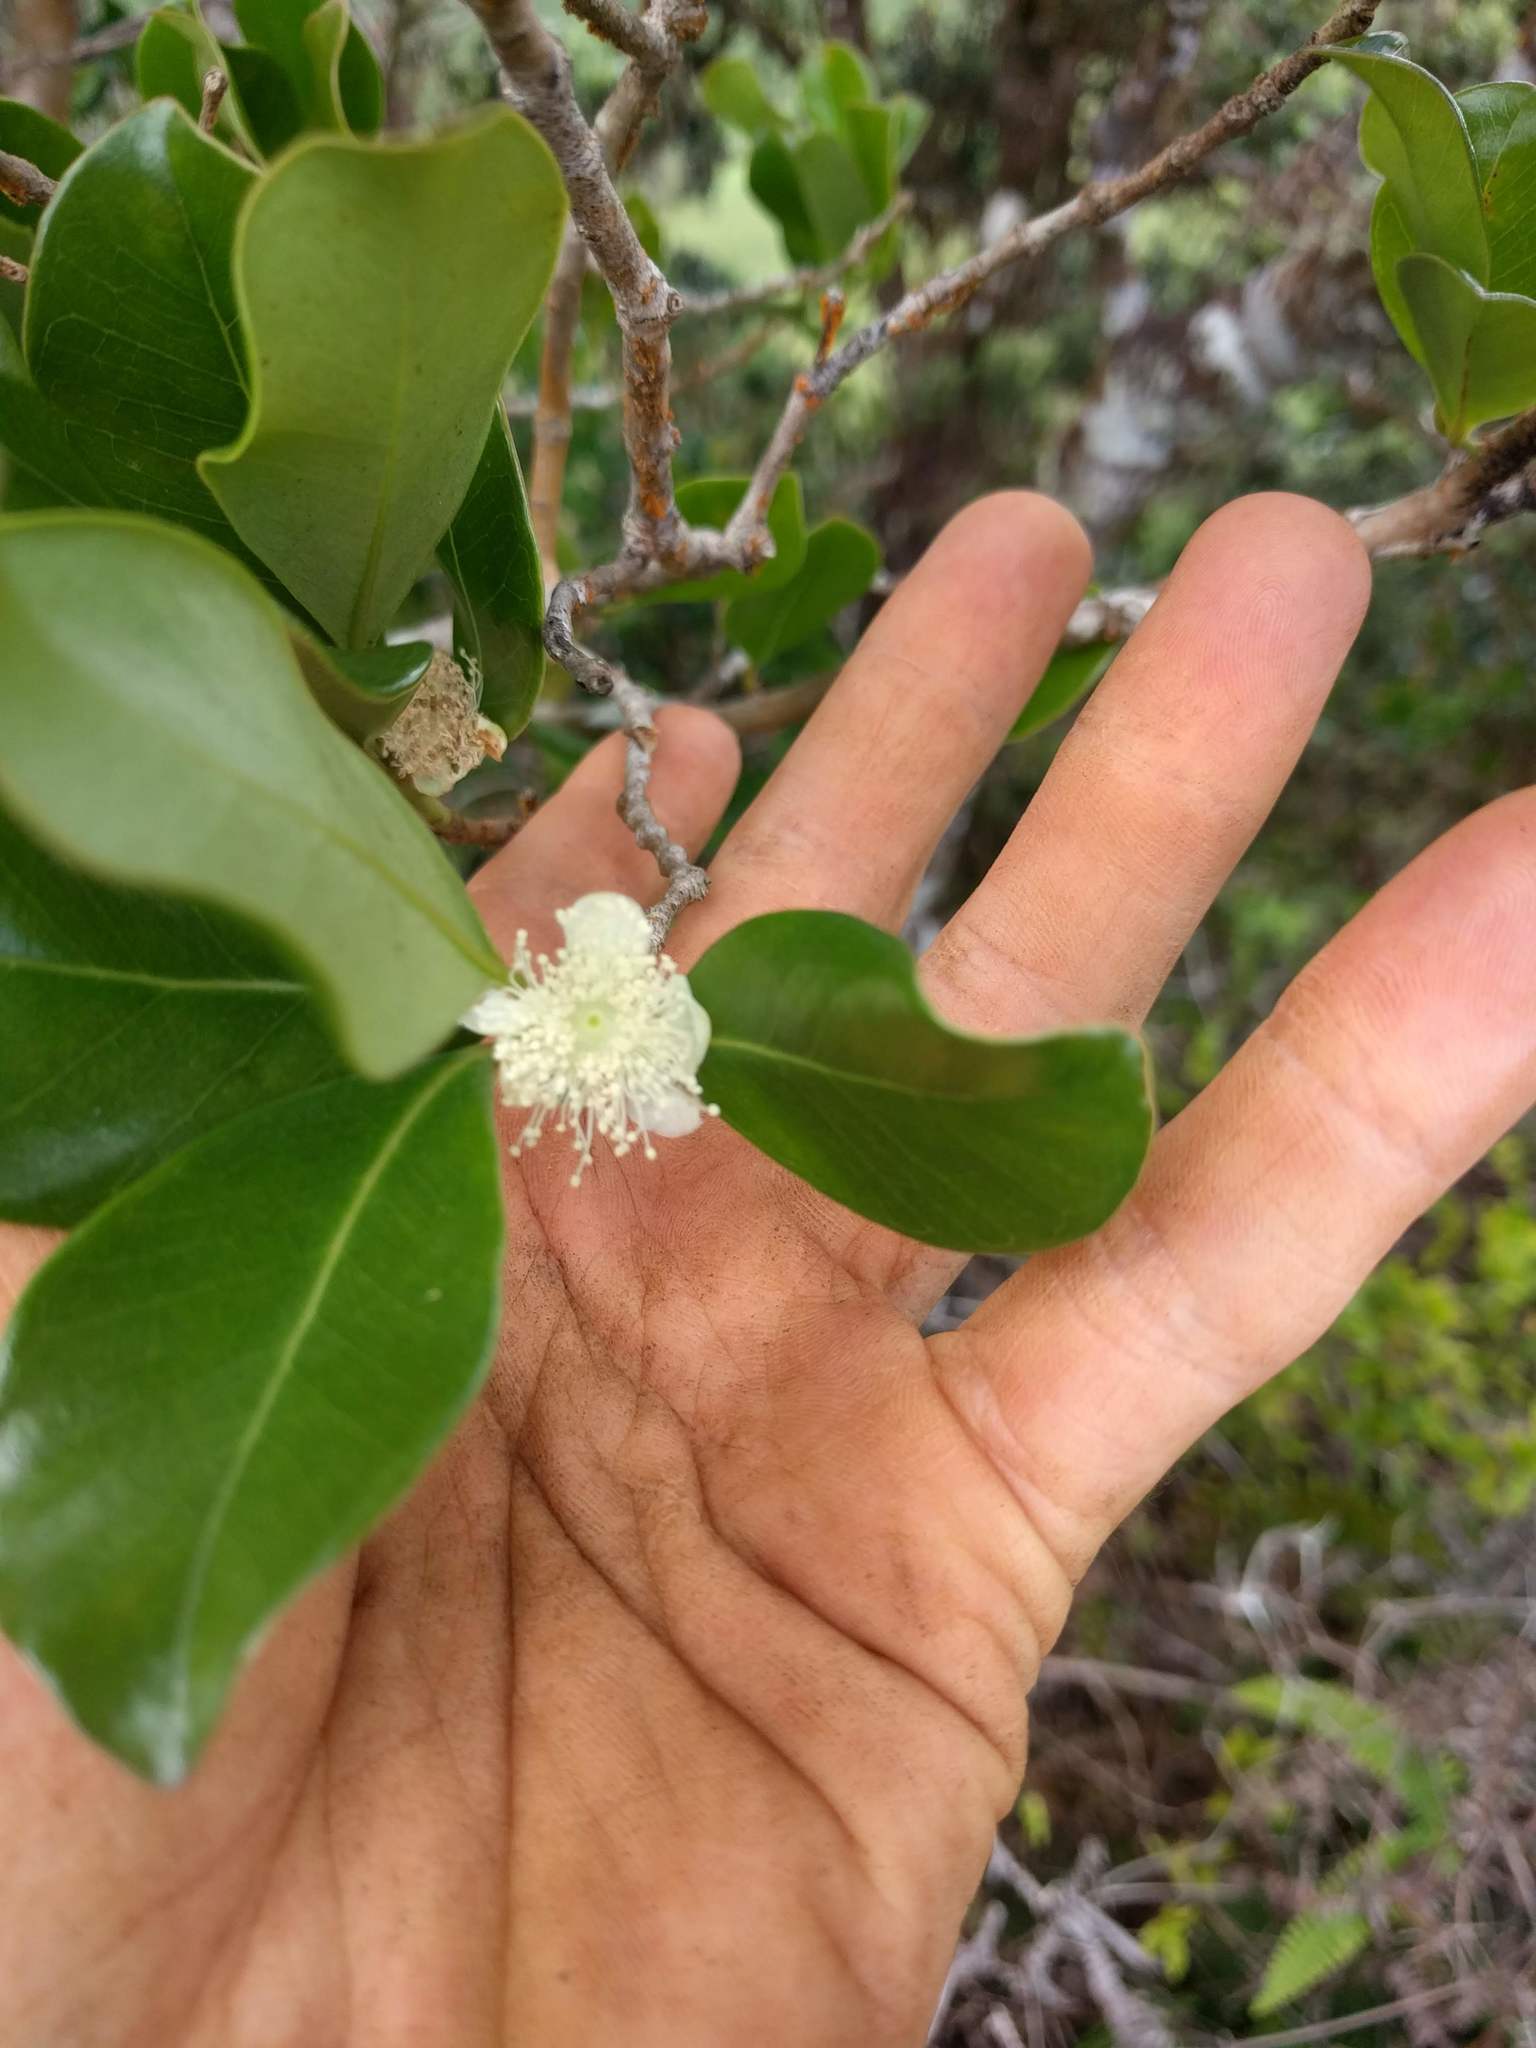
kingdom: Plantae
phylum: Tracheophyta
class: Magnoliopsida
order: Myrtales
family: Myrtaceae
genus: Psidium
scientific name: Psidium cattleianum
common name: Strawberry guava
